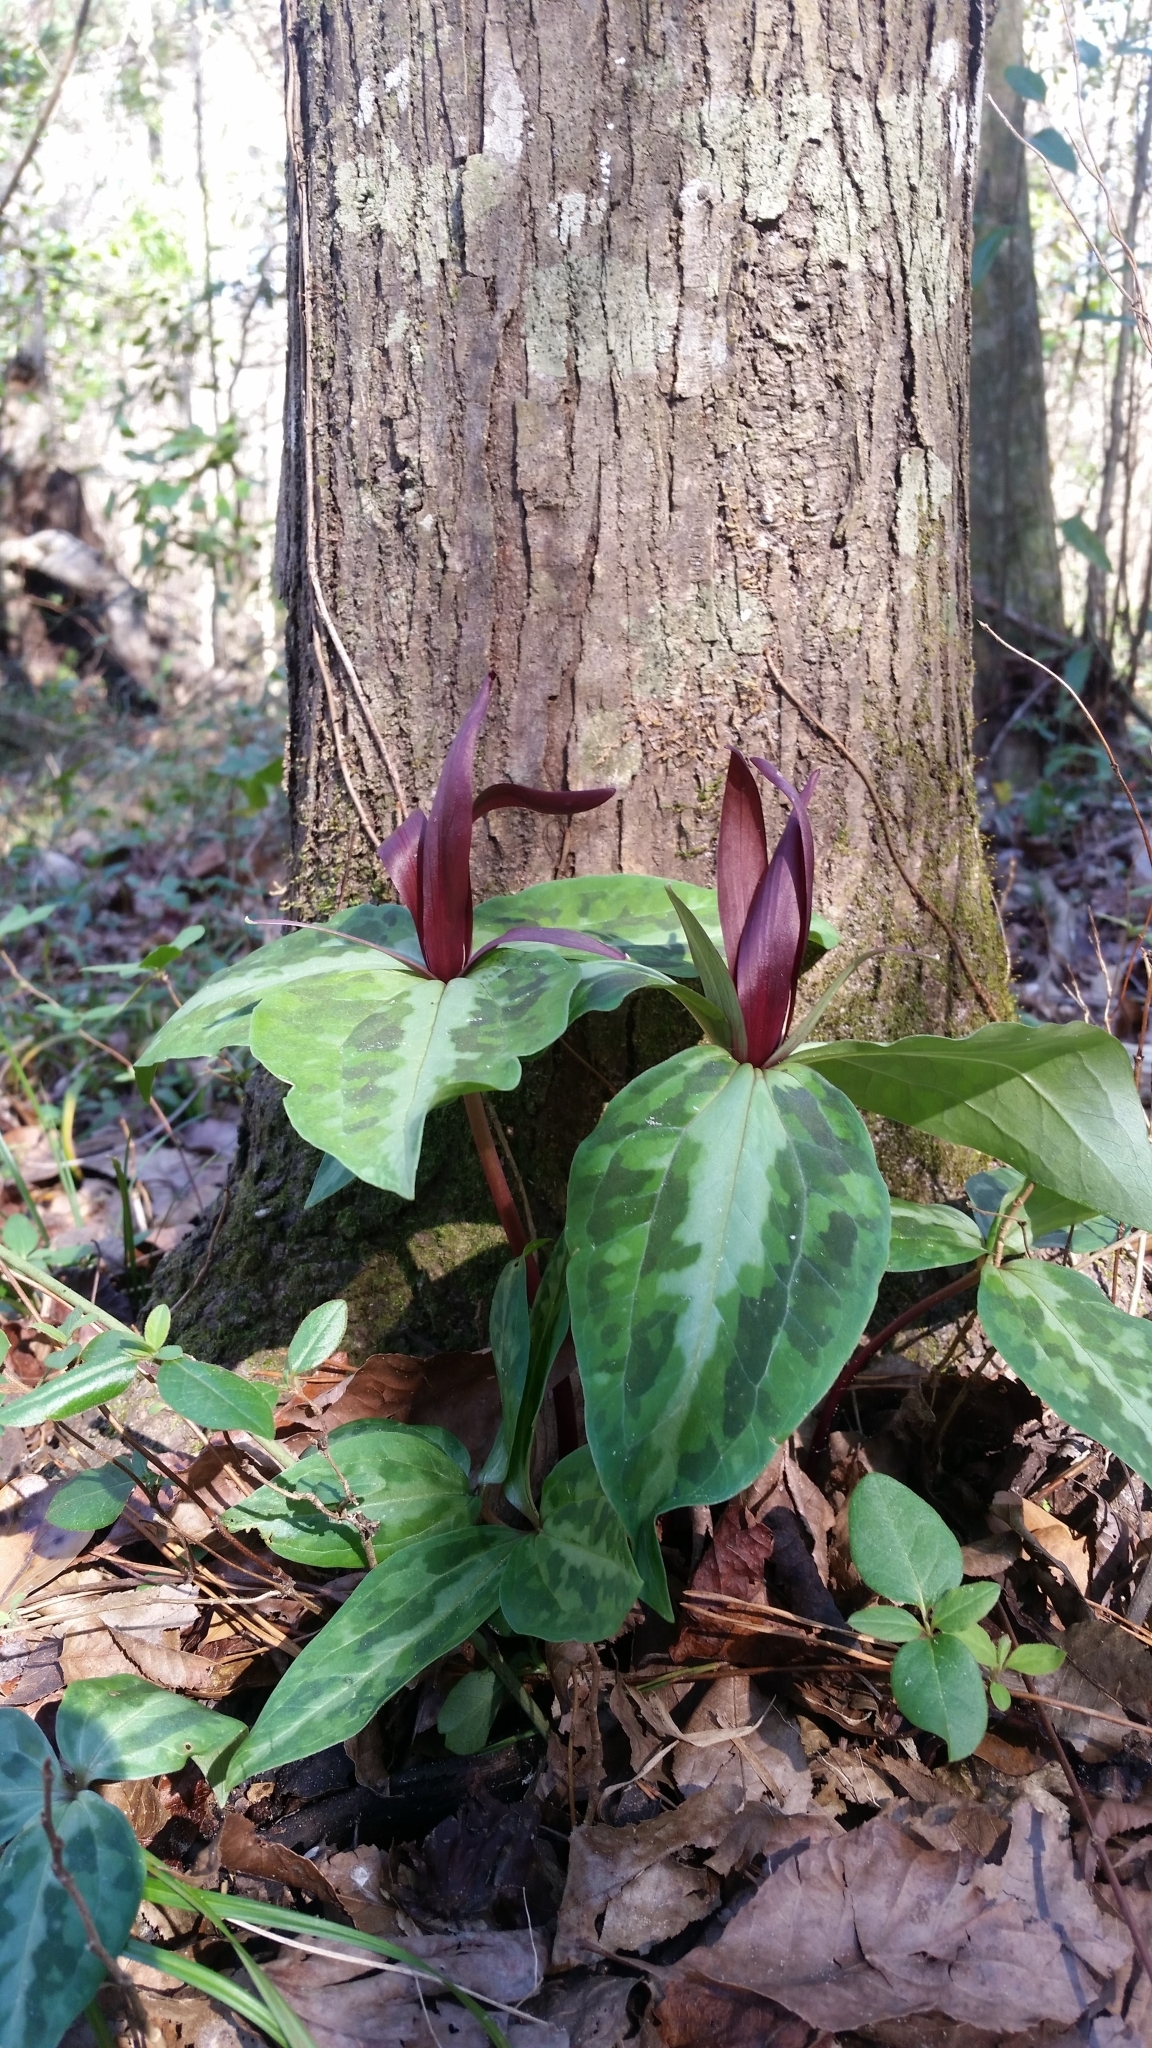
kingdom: Plantae
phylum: Tracheophyta
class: Liliopsida
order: Liliales
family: Melanthiaceae
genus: Trillium
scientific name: Trillium underwoodii
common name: Longbract wakerobin
